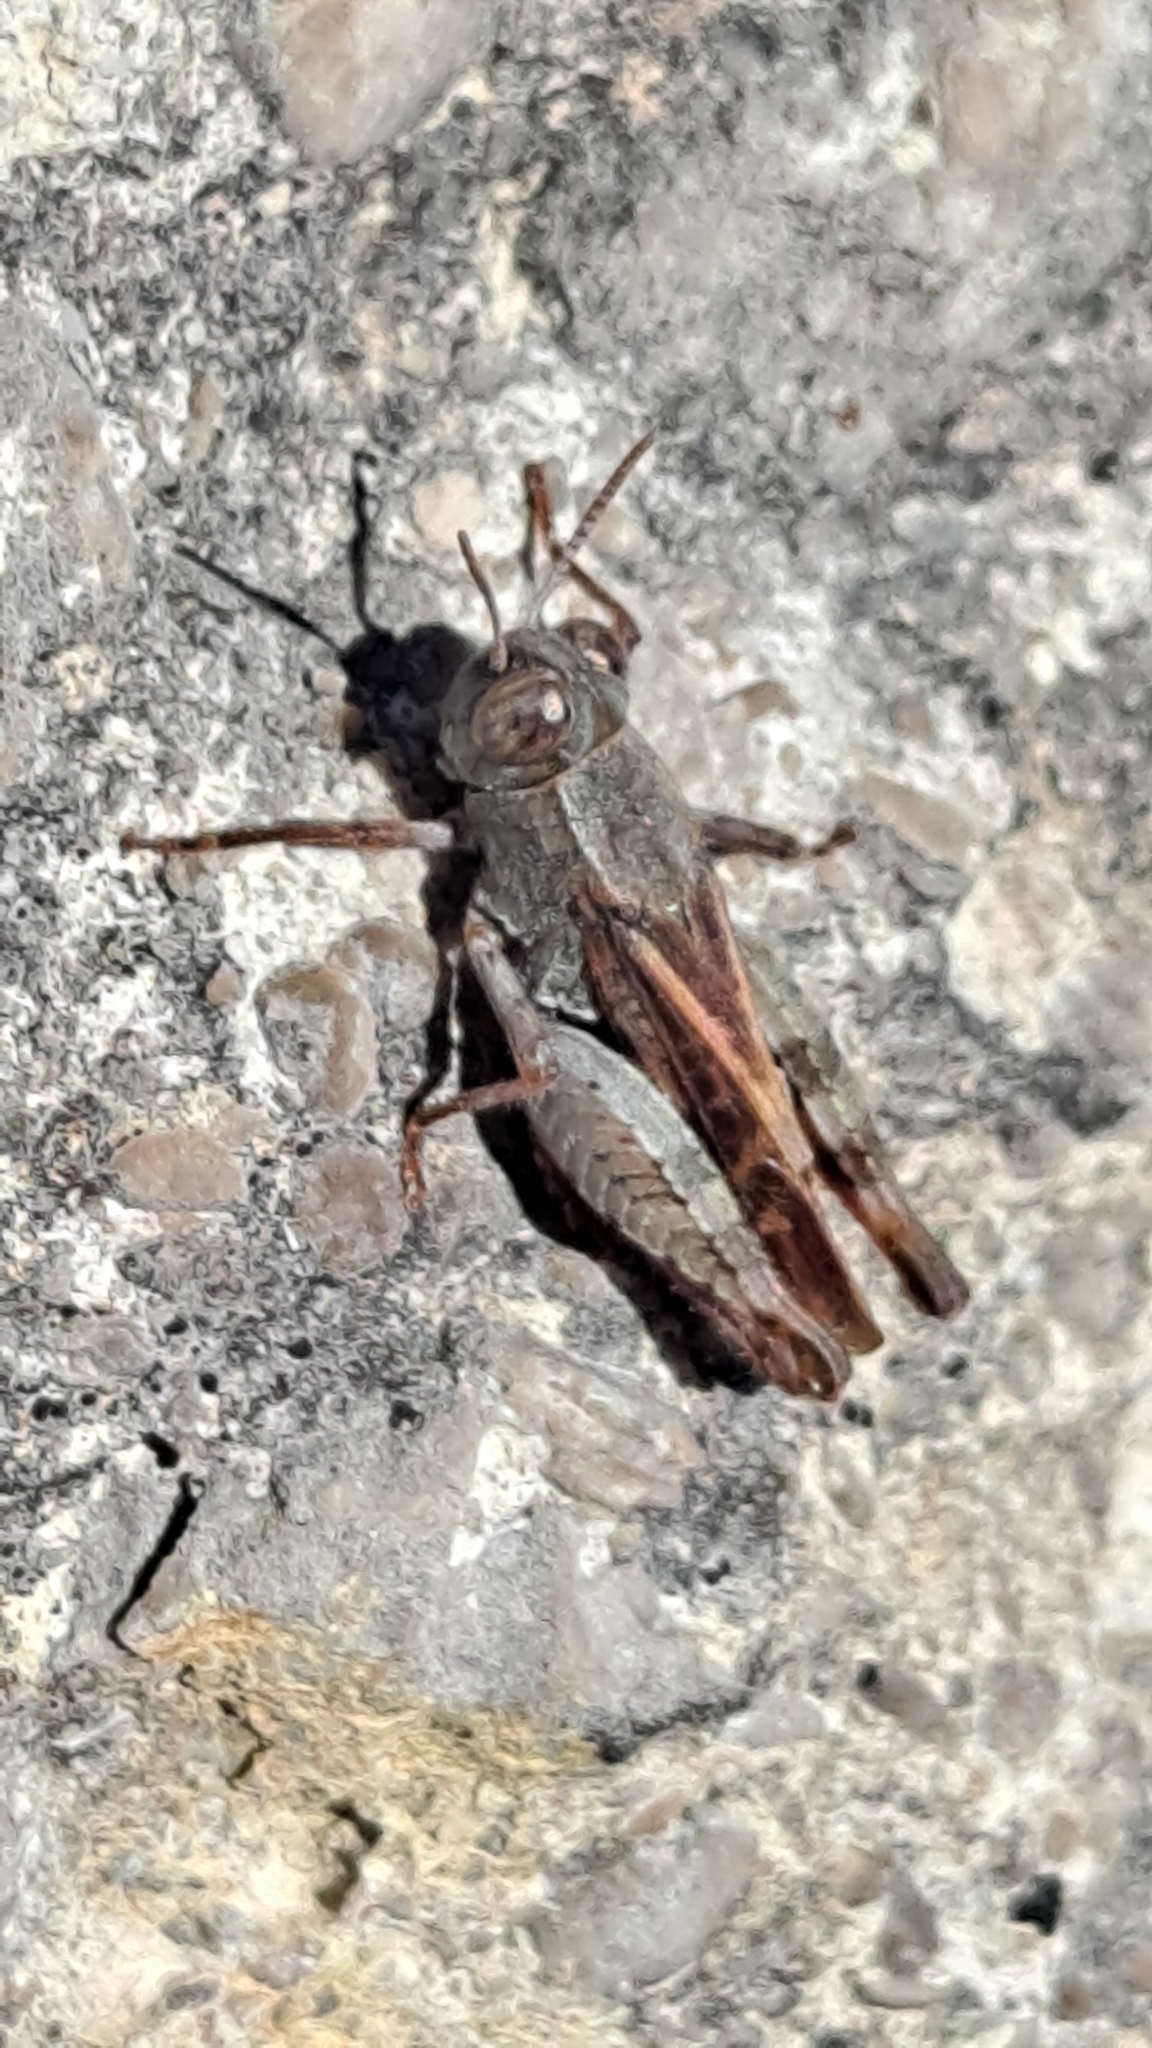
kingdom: Animalia
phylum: Arthropoda
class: Insecta
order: Orthoptera
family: Acrididae
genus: Calliptamus
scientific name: Calliptamus barbarus
